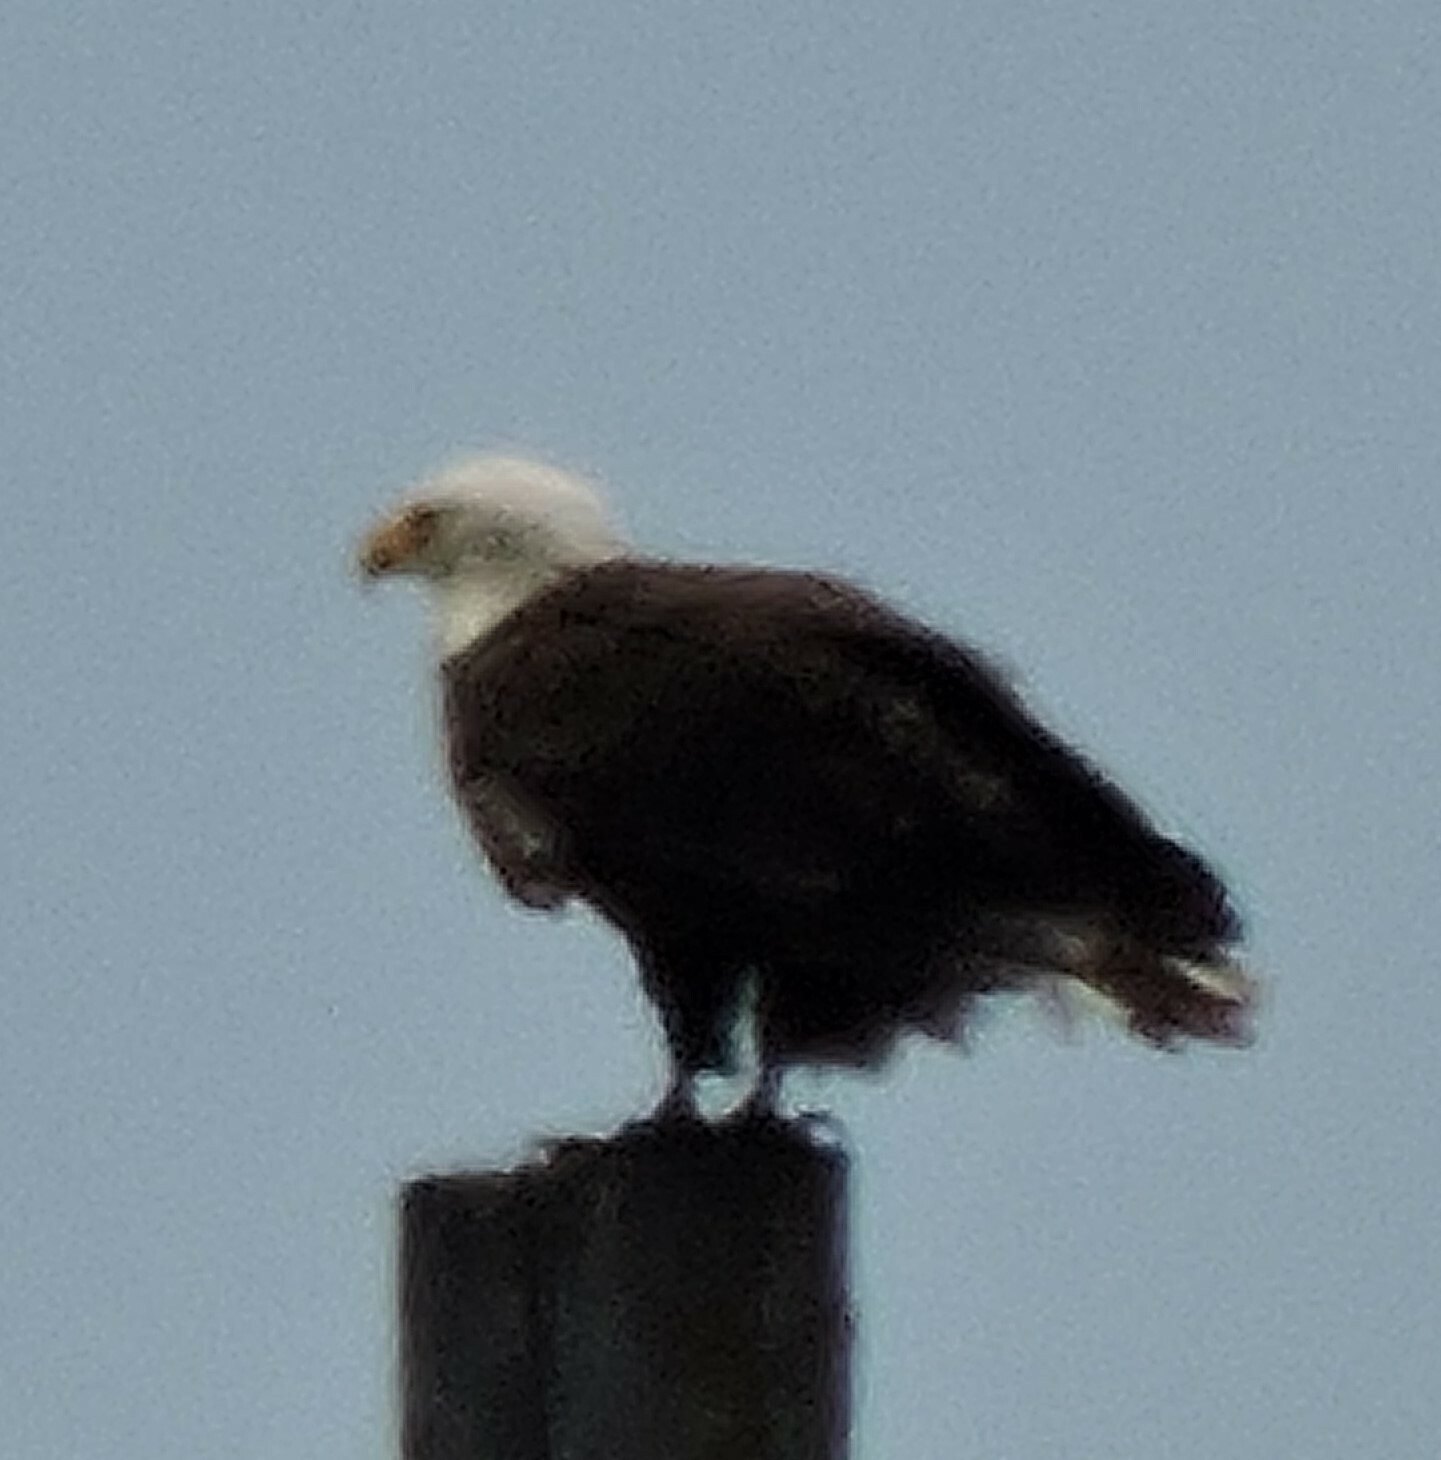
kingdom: Animalia
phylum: Chordata
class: Aves
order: Accipitriformes
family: Accipitridae
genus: Haliaeetus
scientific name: Haliaeetus leucocephalus
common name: Bald eagle
